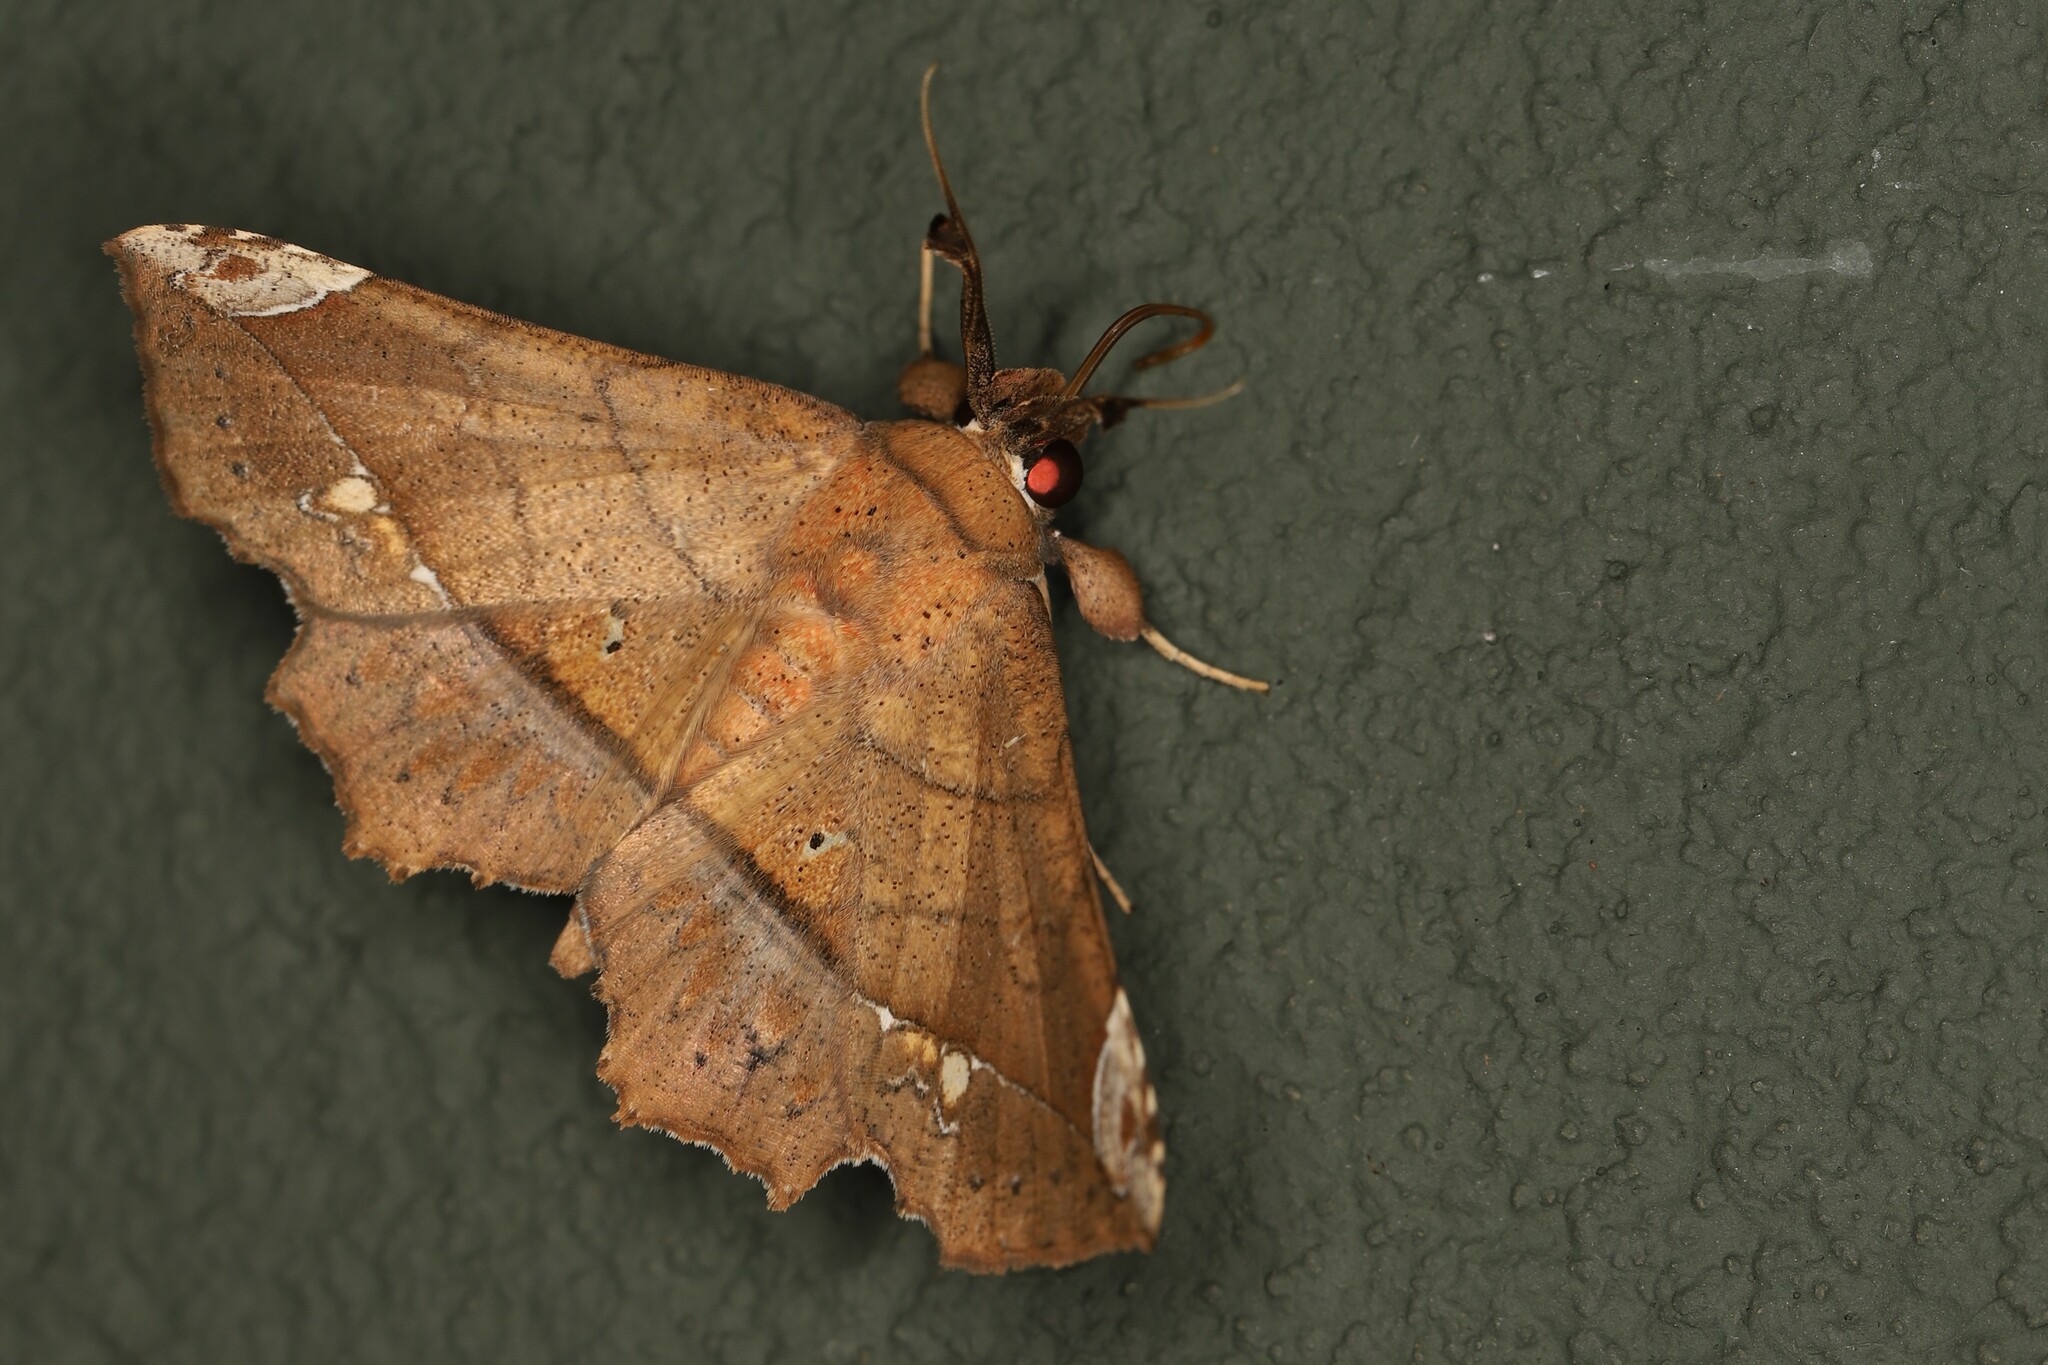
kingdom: Animalia
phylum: Arthropoda
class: Insecta
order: Lepidoptera
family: Erebidae
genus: Syllectra
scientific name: Syllectra erycata
